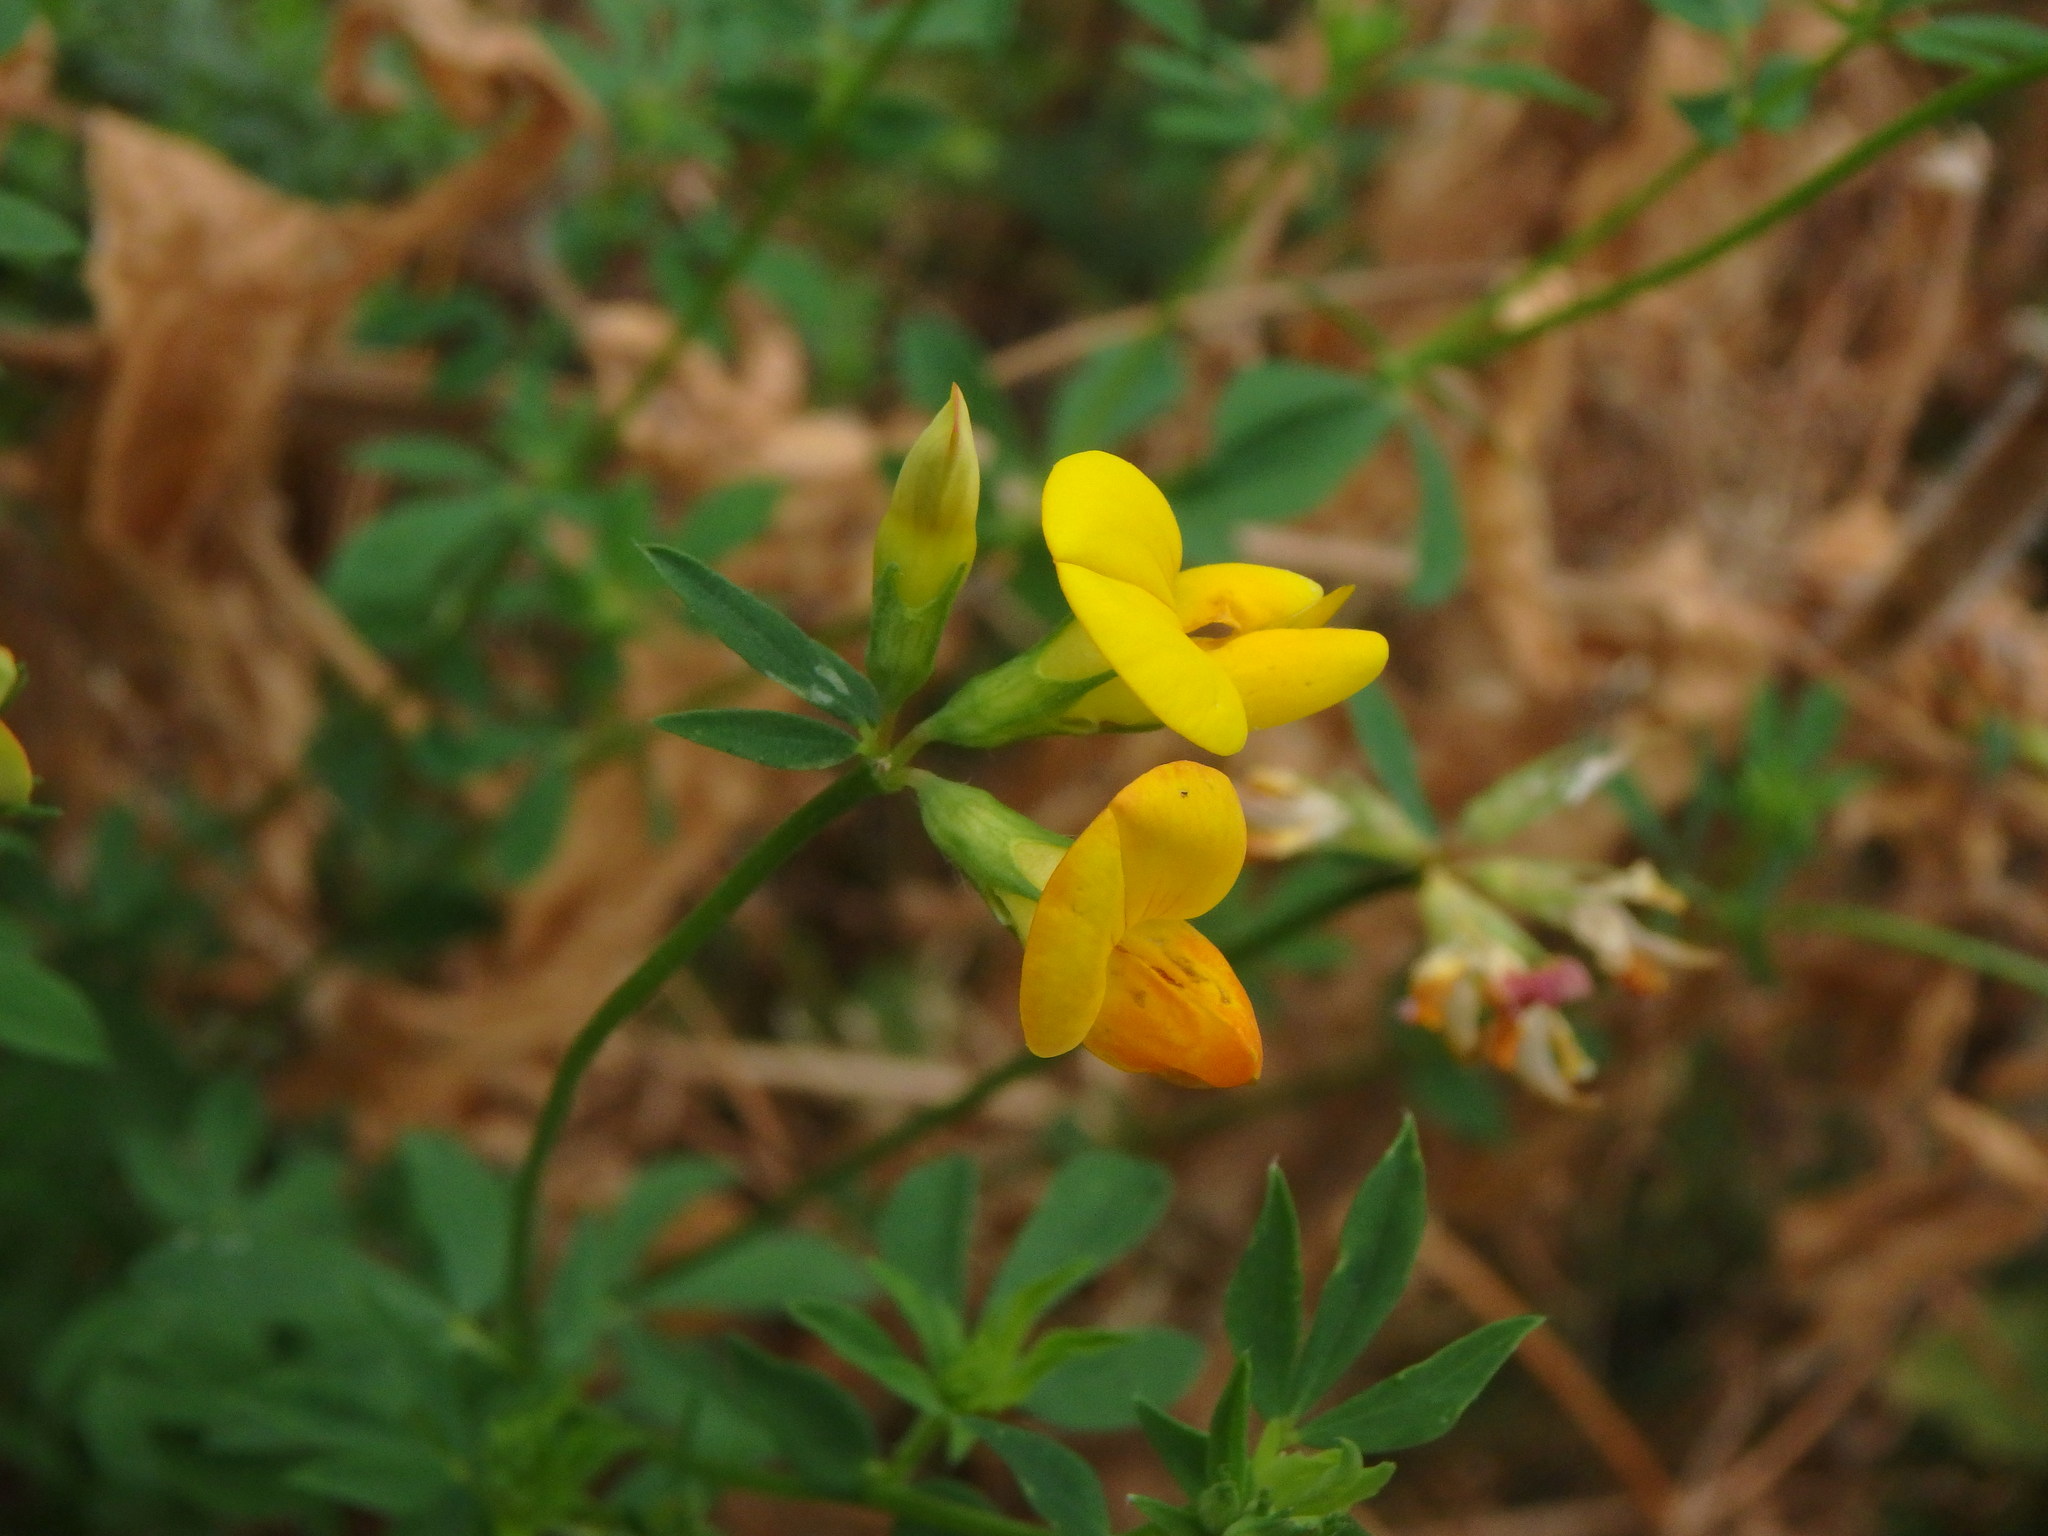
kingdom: Plantae
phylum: Tracheophyta
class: Magnoliopsida
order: Fabales
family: Fabaceae
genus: Lotus
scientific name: Lotus corniculatus
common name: Common bird's-foot-trefoil
